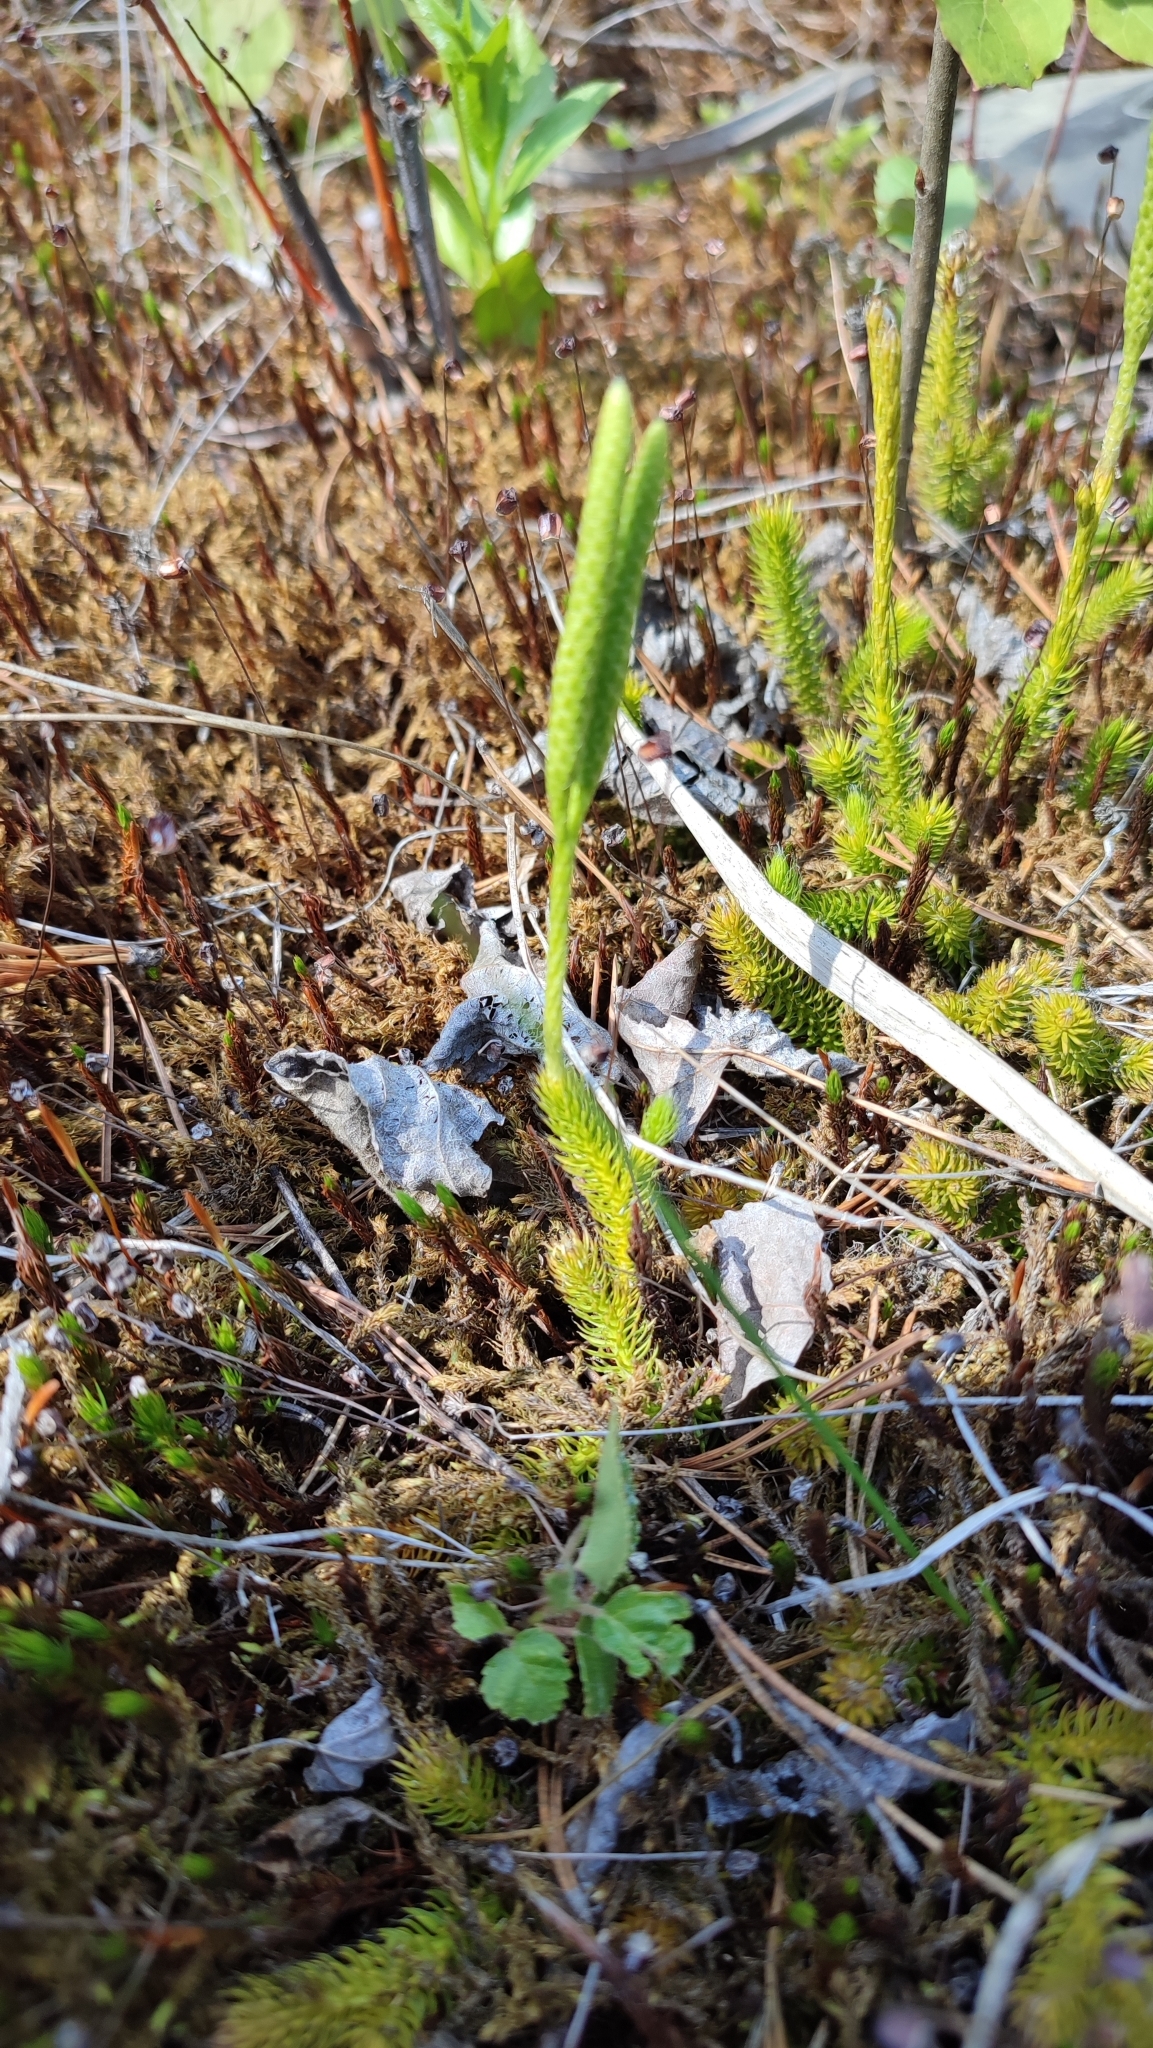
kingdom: Plantae
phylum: Tracheophyta
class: Lycopodiopsida
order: Lycopodiales
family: Lycopodiaceae
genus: Lycopodium
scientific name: Lycopodium clavatum
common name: Stag's-horn clubmoss
